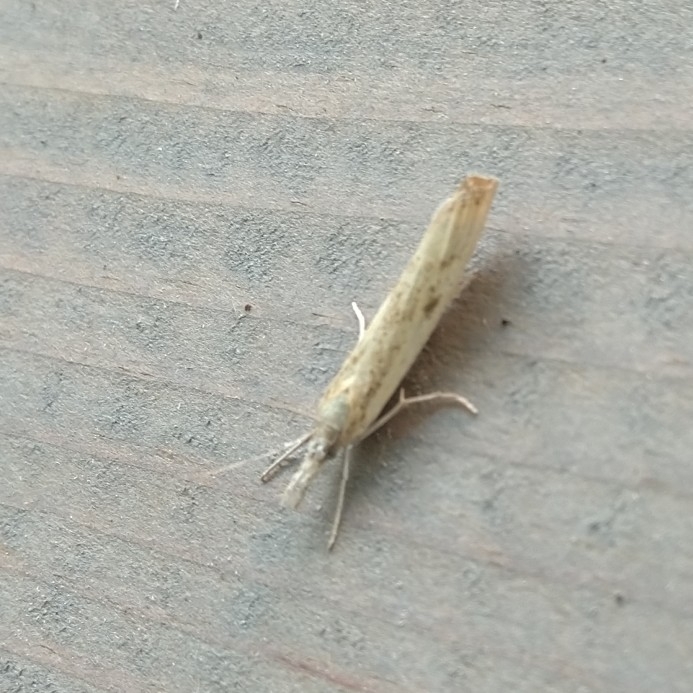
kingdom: Animalia
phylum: Arthropoda
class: Insecta
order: Lepidoptera
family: Crambidae
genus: Agriphila
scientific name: Agriphila inquinatella
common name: Barred grass-veneer
